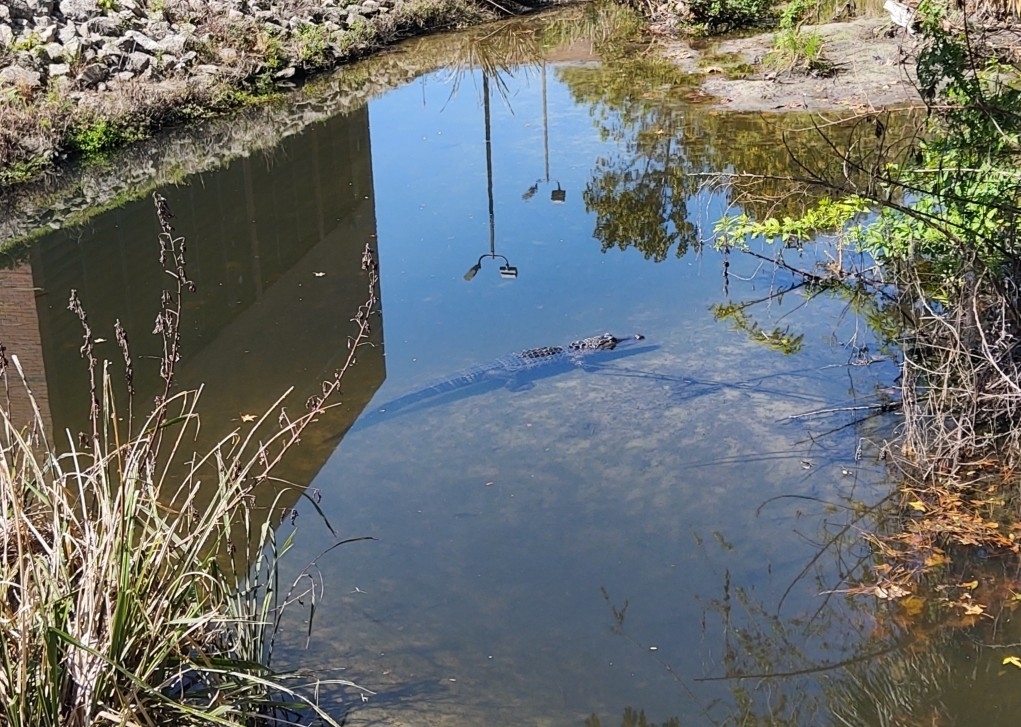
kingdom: Animalia
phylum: Chordata
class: Crocodylia
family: Alligatoridae
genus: Alligator
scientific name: Alligator mississippiensis
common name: American alligator
